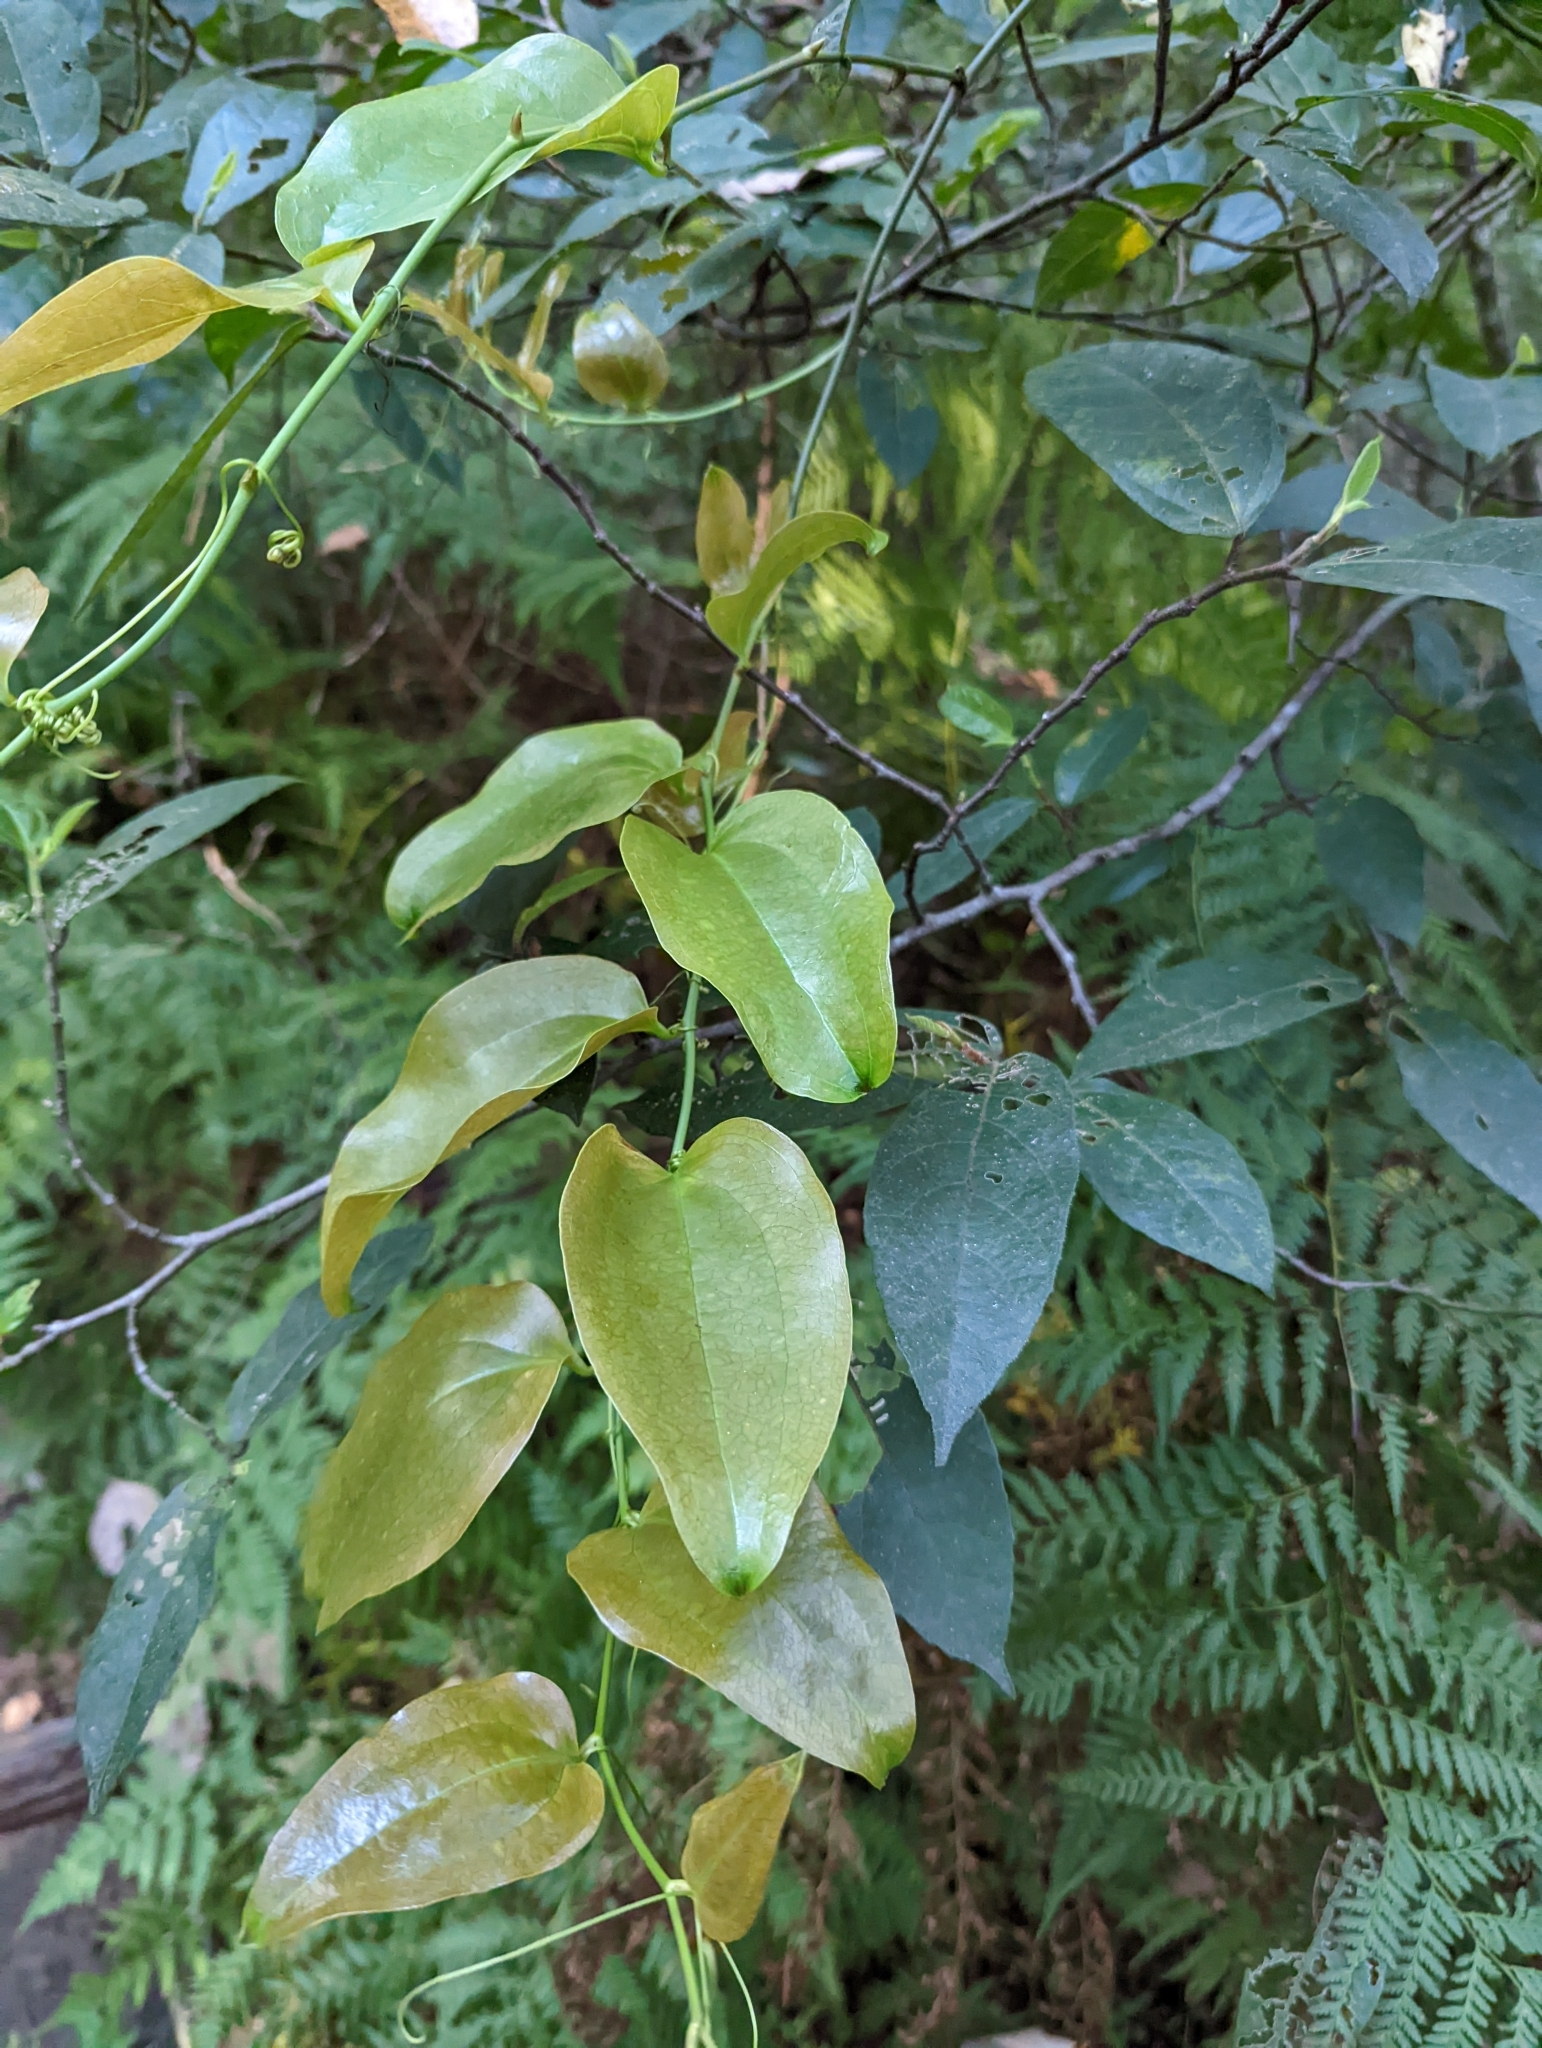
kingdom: Plantae
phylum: Tracheophyta
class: Liliopsida
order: Liliales
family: Smilacaceae
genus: Smilax
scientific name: Smilax australis
